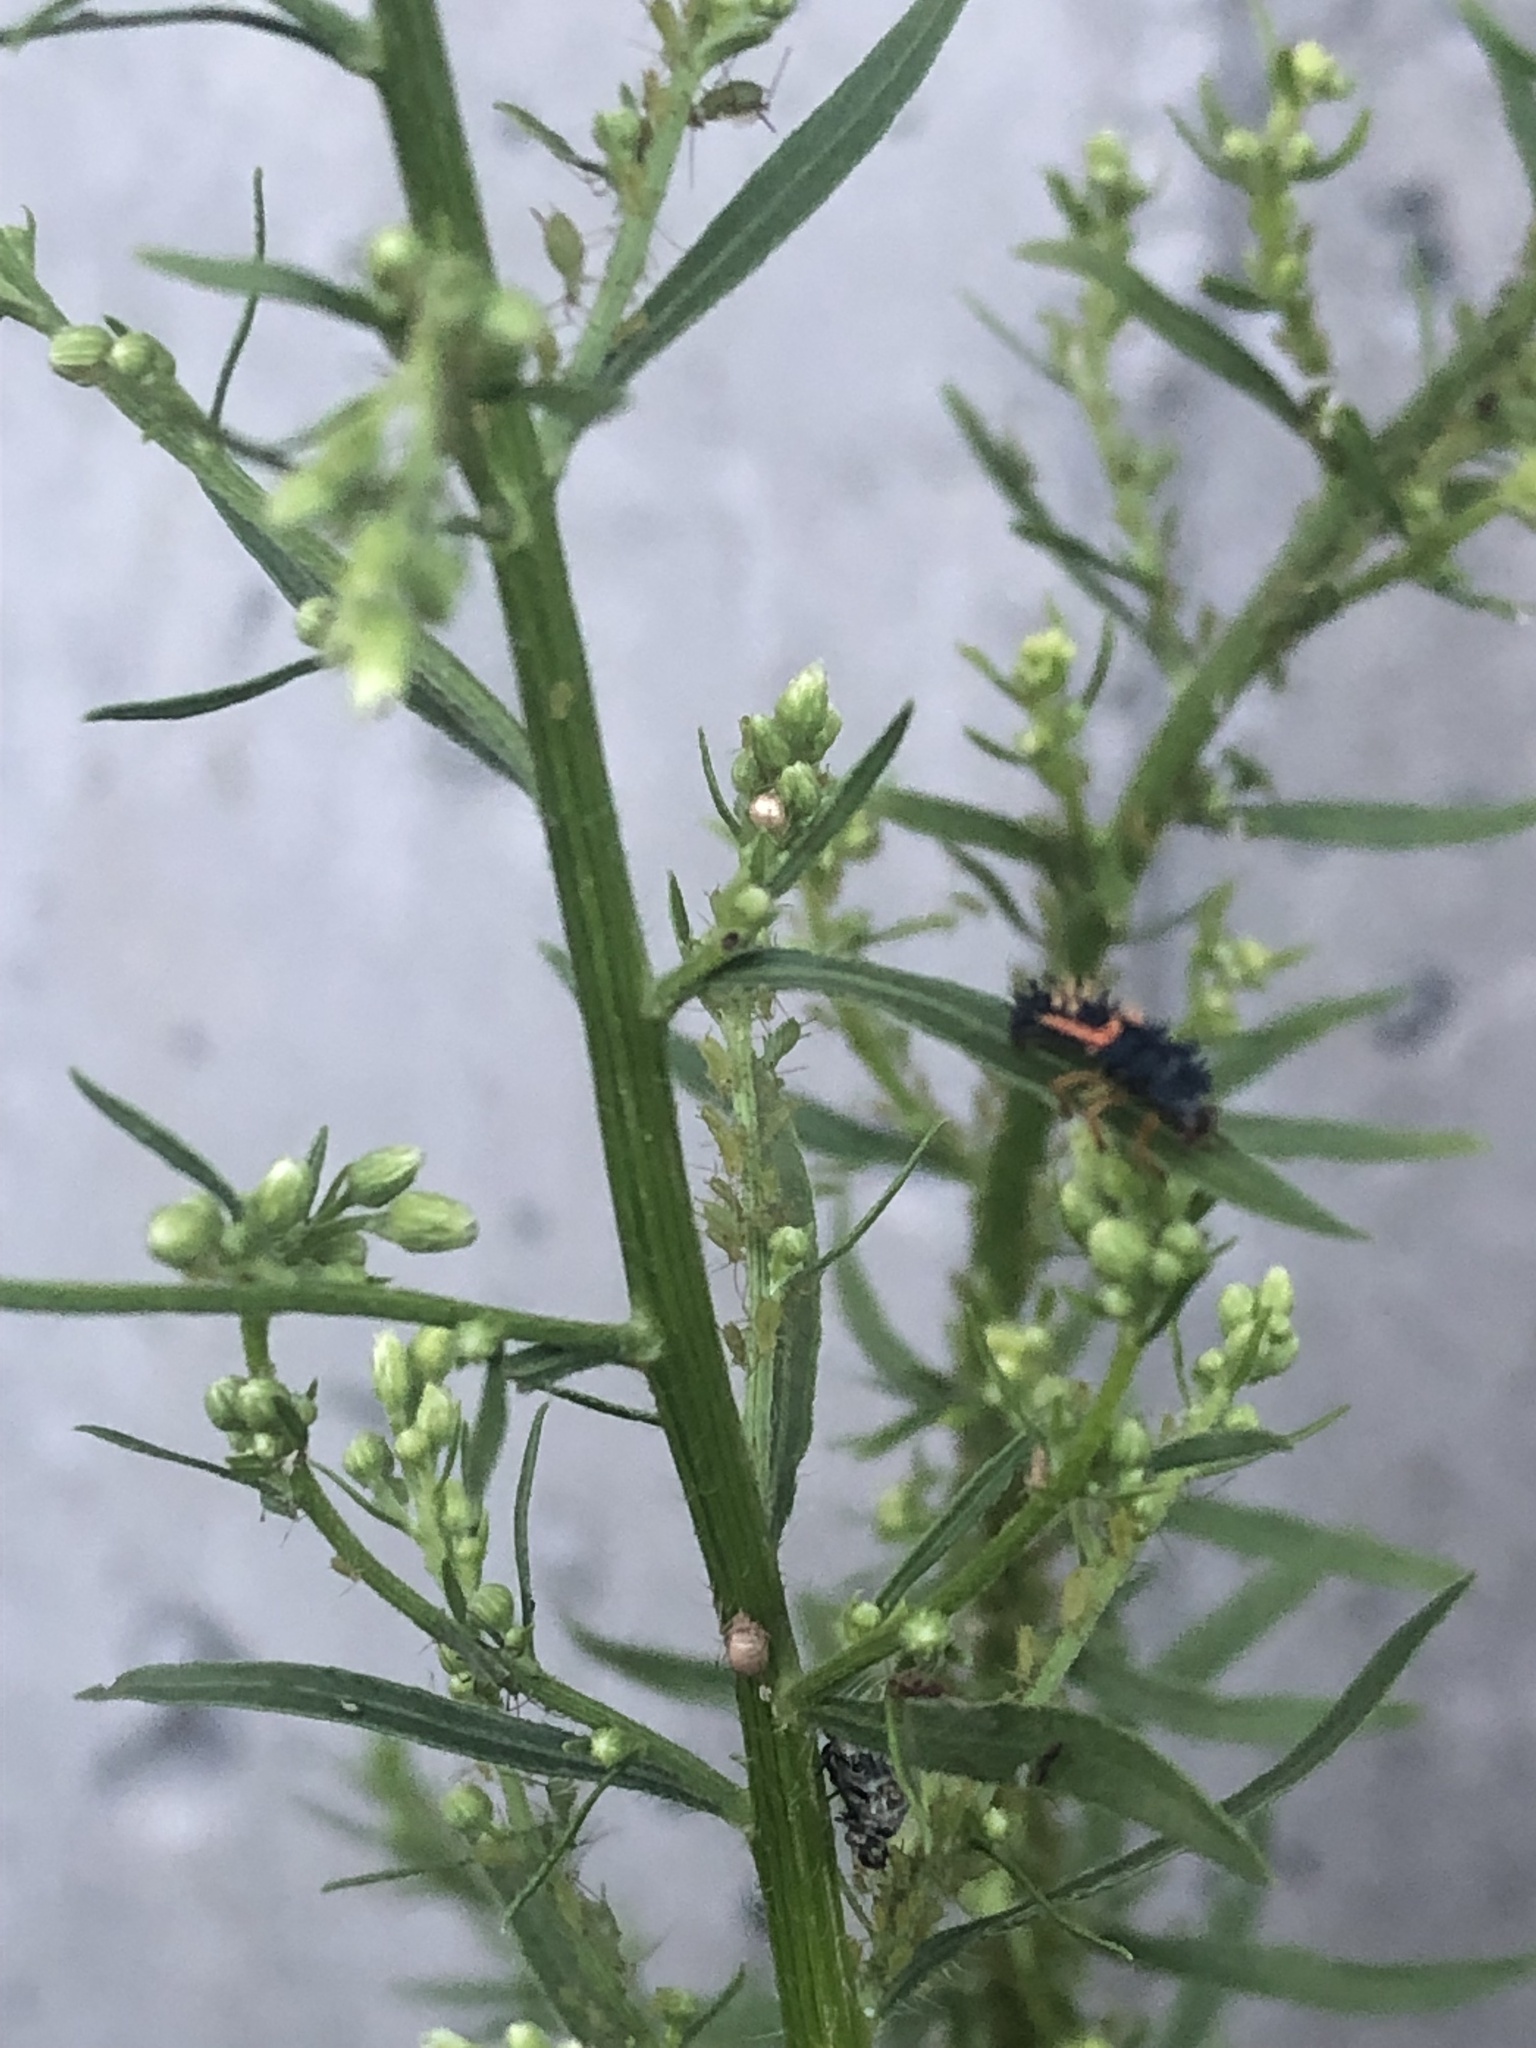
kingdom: Animalia
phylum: Arthropoda
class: Insecta
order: Coleoptera
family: Coccinellidae
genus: Harmonia
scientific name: Harmonia axyridis
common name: Harlequin ladybird
